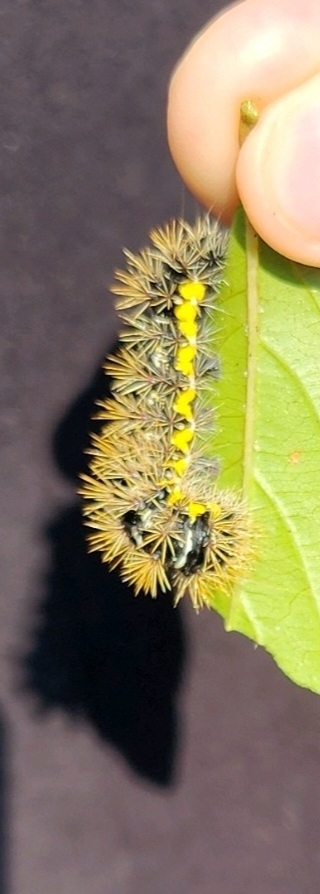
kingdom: Animalia
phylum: Arthropoda
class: Insecta
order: Lepidoptera
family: Noctuidae
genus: Acronicta
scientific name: Acronicta oblinita
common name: Smeared dagger
